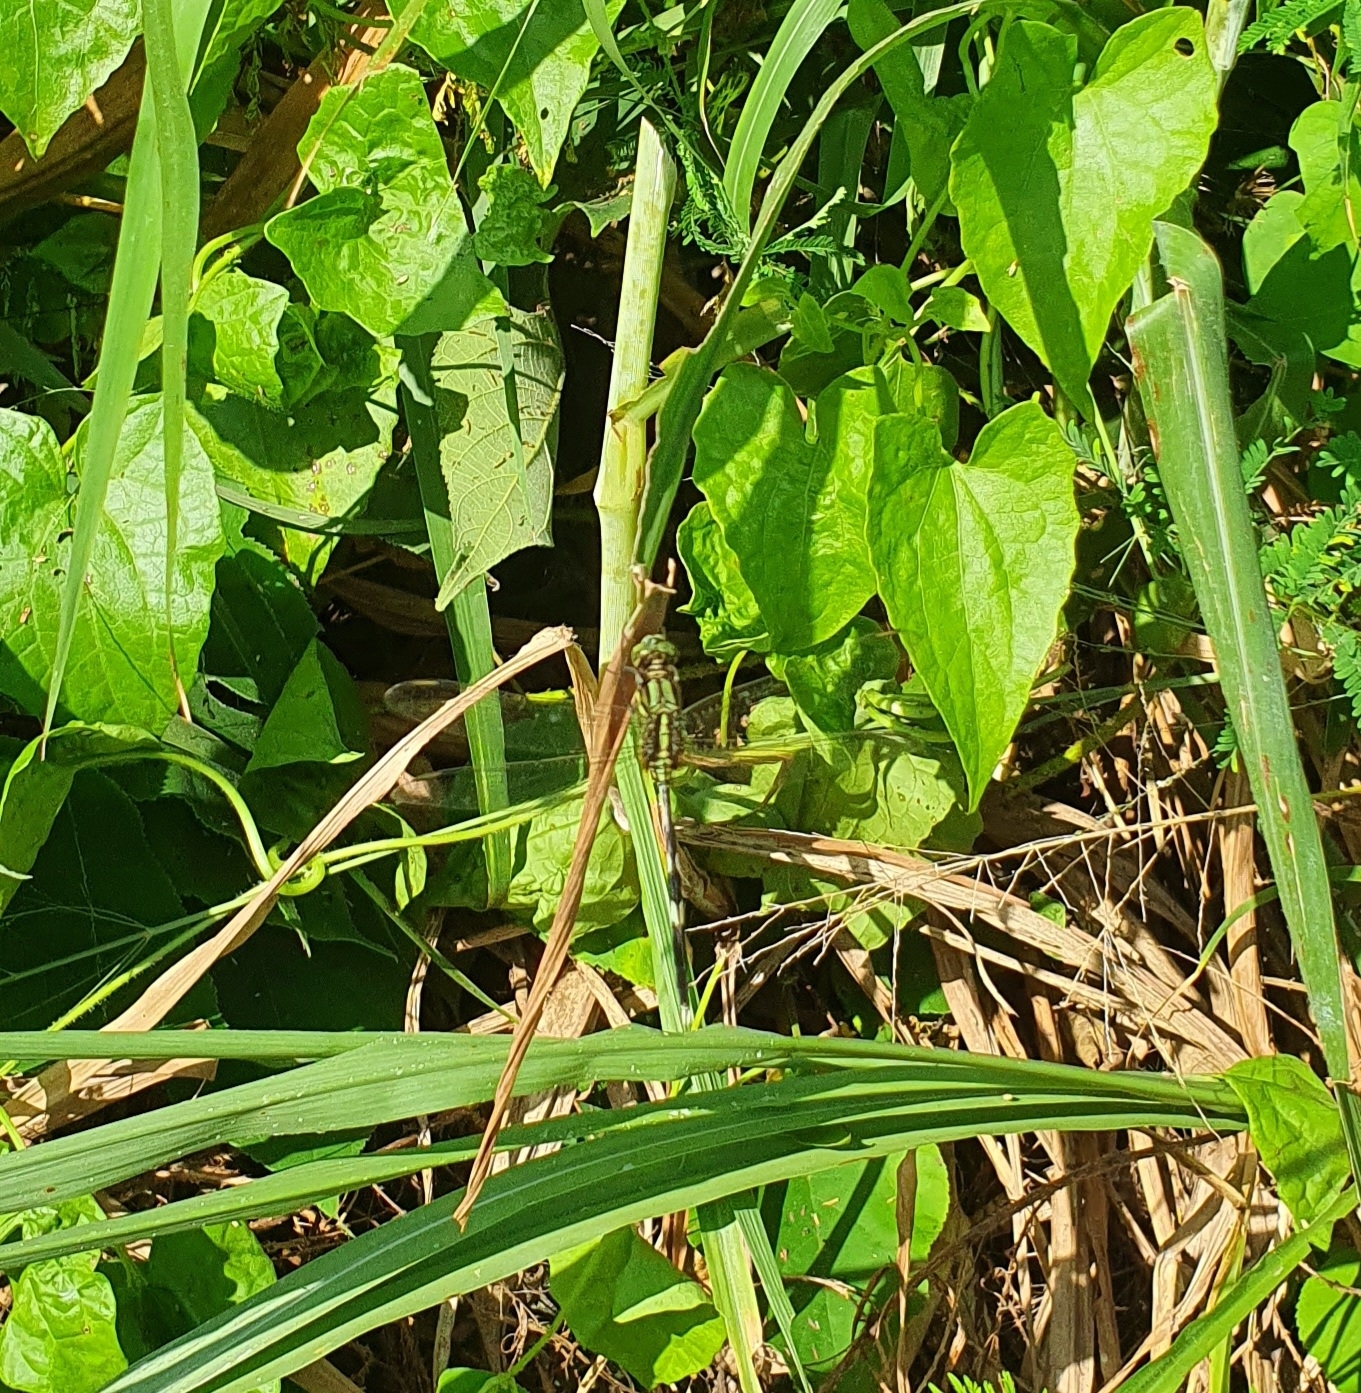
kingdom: Animalia
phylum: Arthropoda
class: Insecta
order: Odonata
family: Libellulidae
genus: Orthetrum
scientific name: Orthetrum sabina
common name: Slender skimmer
